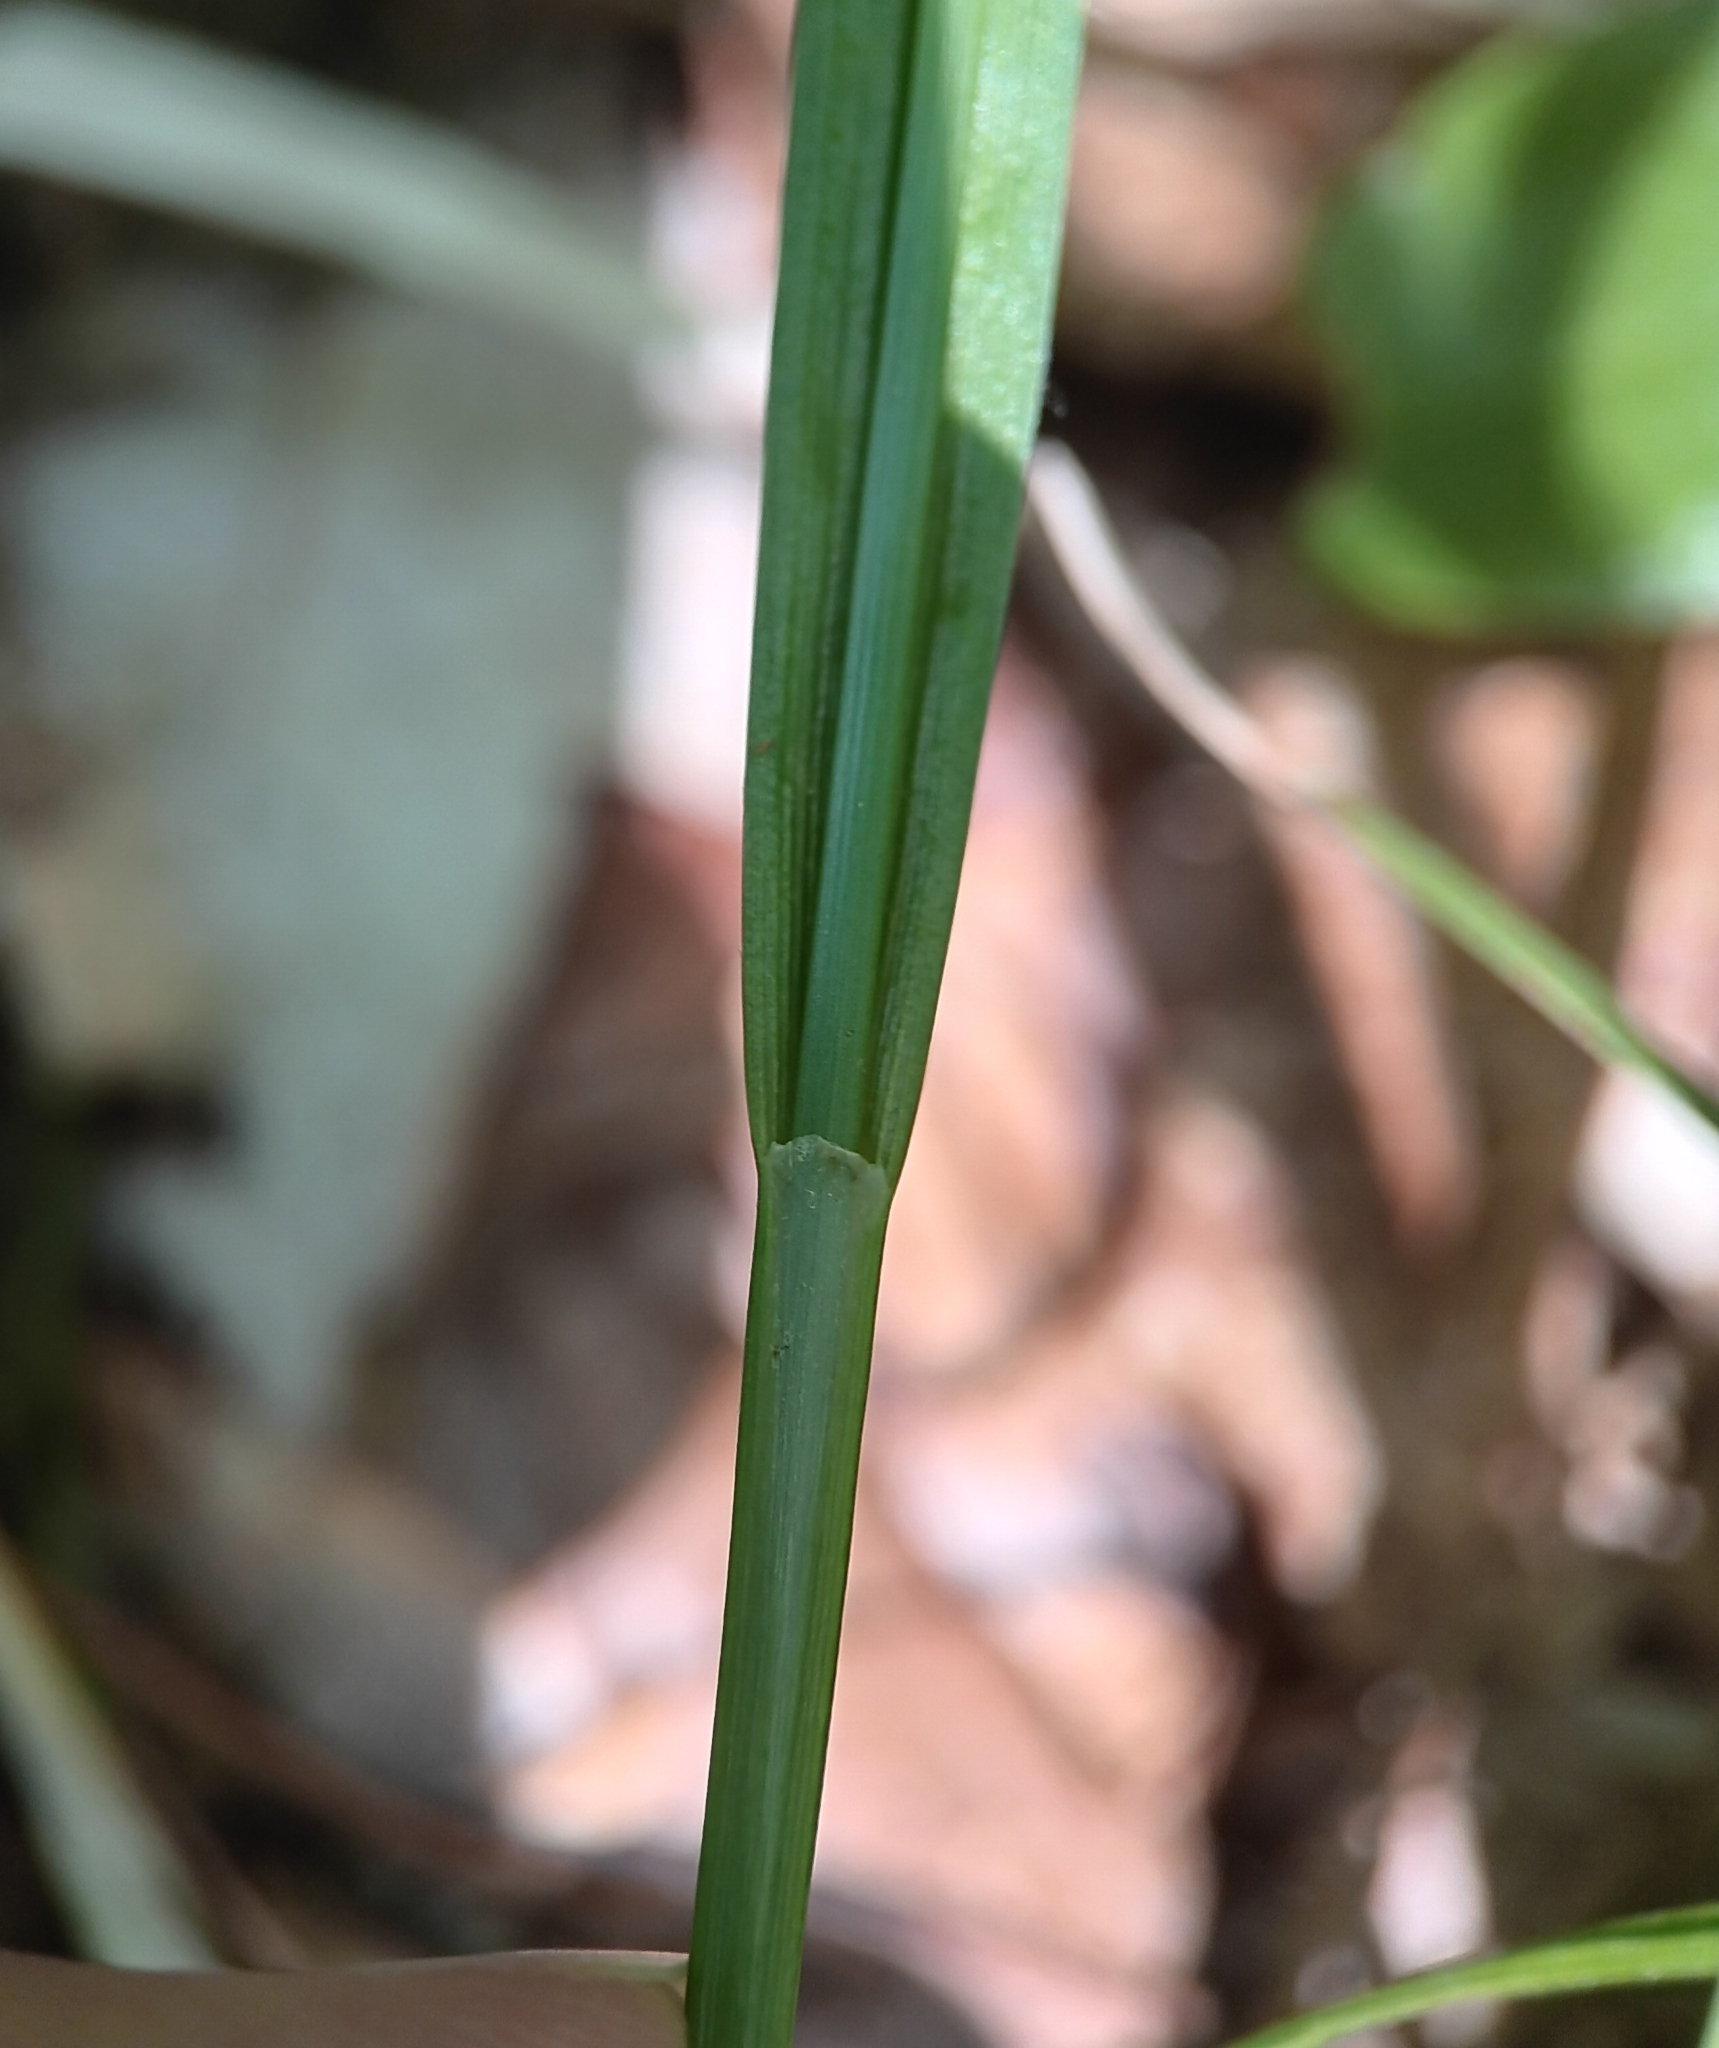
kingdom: Plantae
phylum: Tracheophyta
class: Liliopsida
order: Poales
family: Cyperaceae
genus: Carex
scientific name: Carex intumescens
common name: Greater bladder sedge
